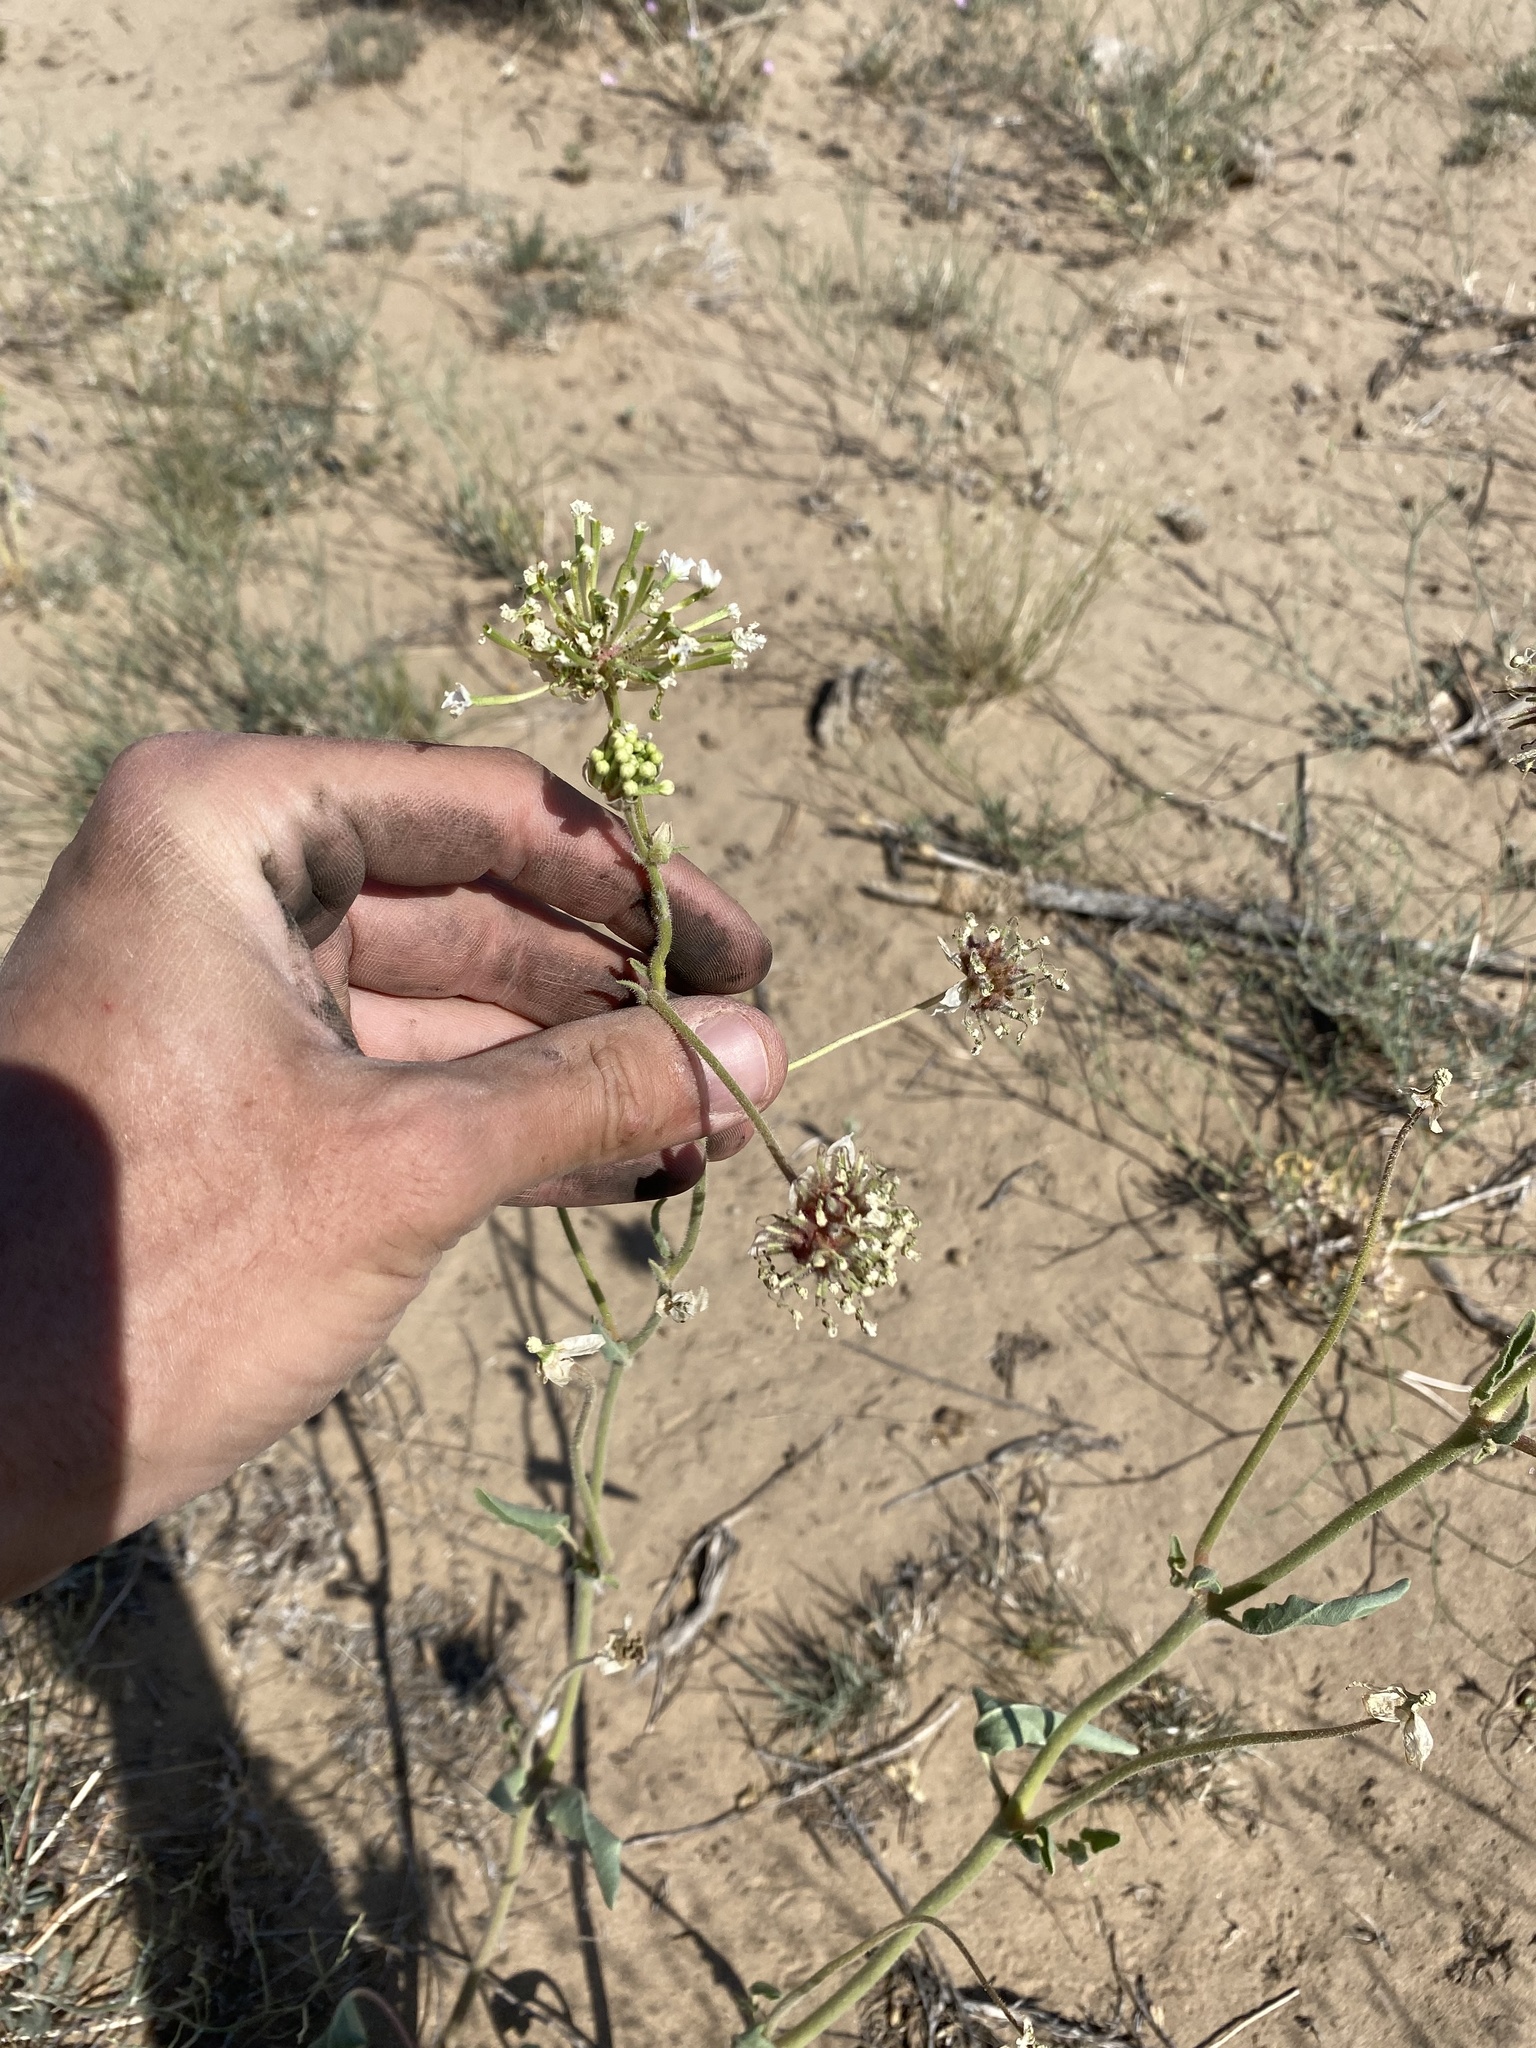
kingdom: Plantae
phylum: Tracheophyta
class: Magnoliopsida
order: Caryophyllales
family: Nyctaginaceae
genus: Abronia
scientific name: Abronia fragrans
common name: Fragrant sand-verbena
